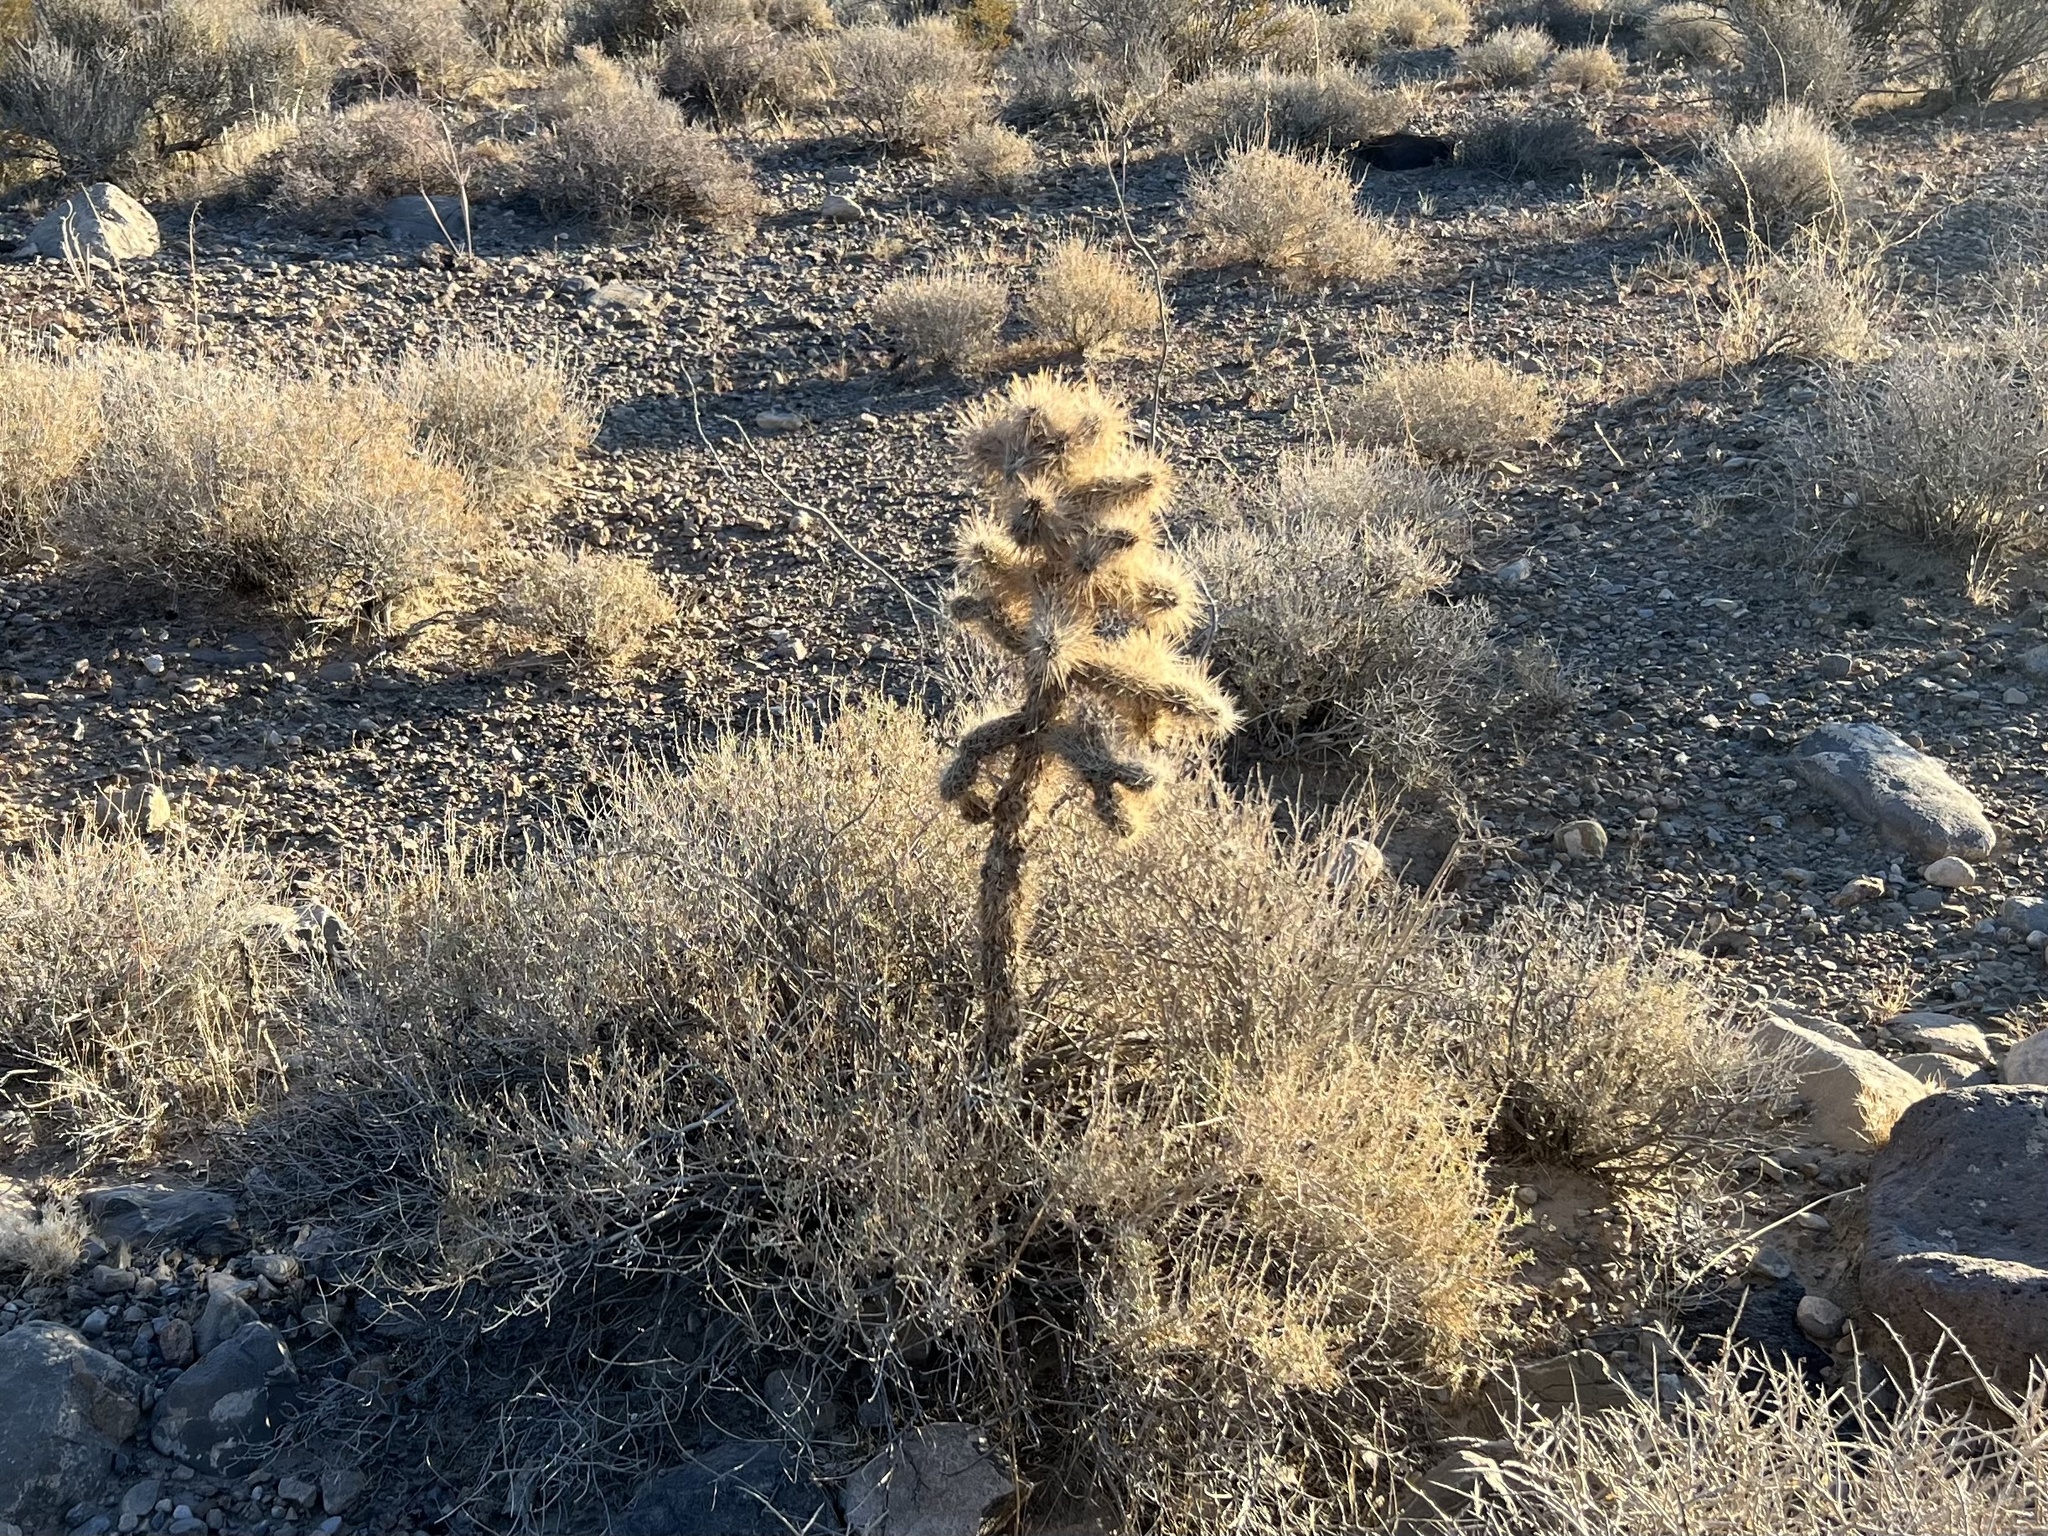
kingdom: Plantae
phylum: Tracheophyta
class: Magnoliopsida
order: Caryophyllales
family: Cactaceae
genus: Cylindropuntia
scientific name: Cylindropuntia echinocarpa
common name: Ground cholla
